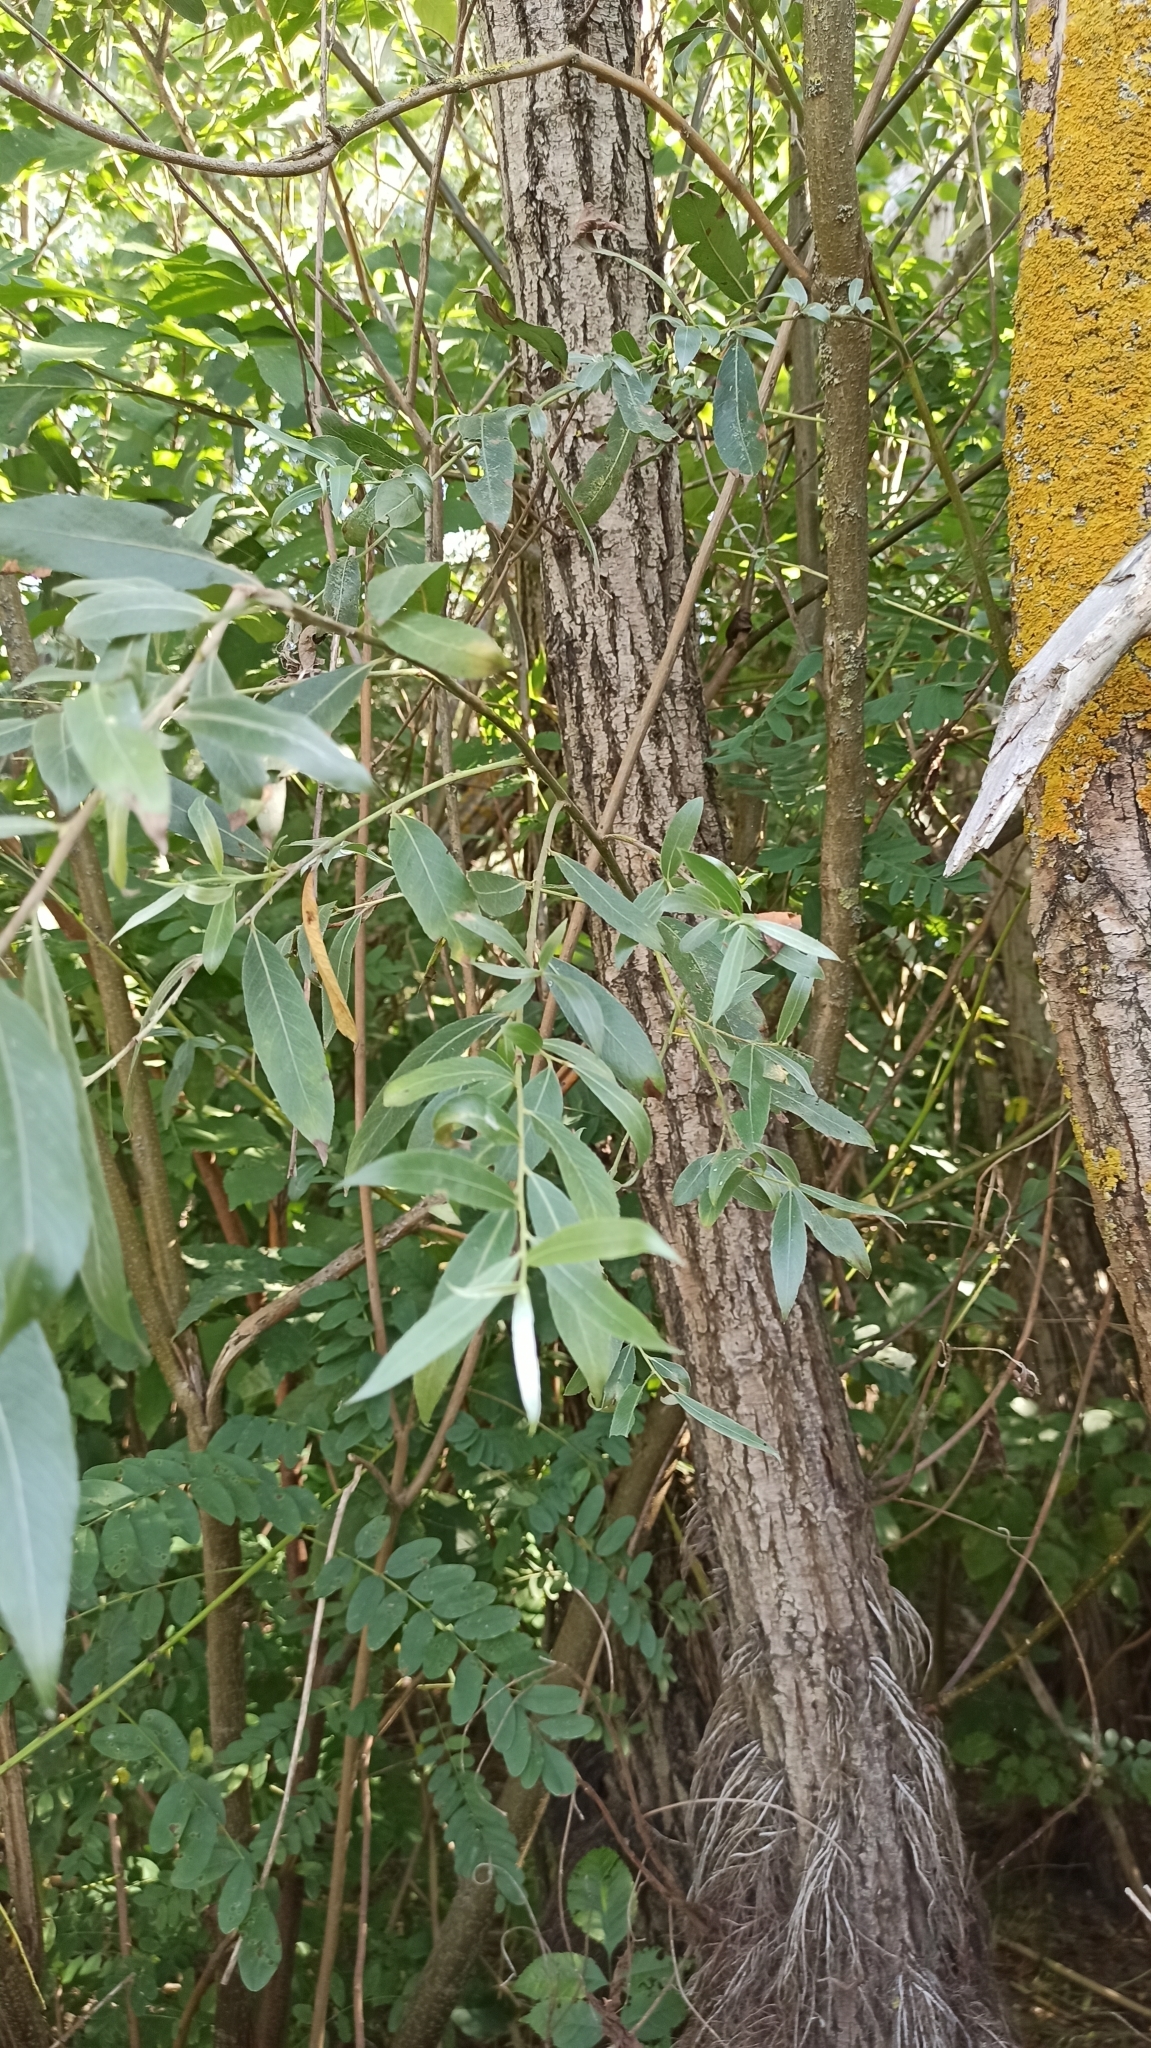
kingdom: Plantae
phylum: Tracheophyta
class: Magnoliopsida
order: Malpighiales
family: Salicaceae
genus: Salix
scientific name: Salix alba
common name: White willow
